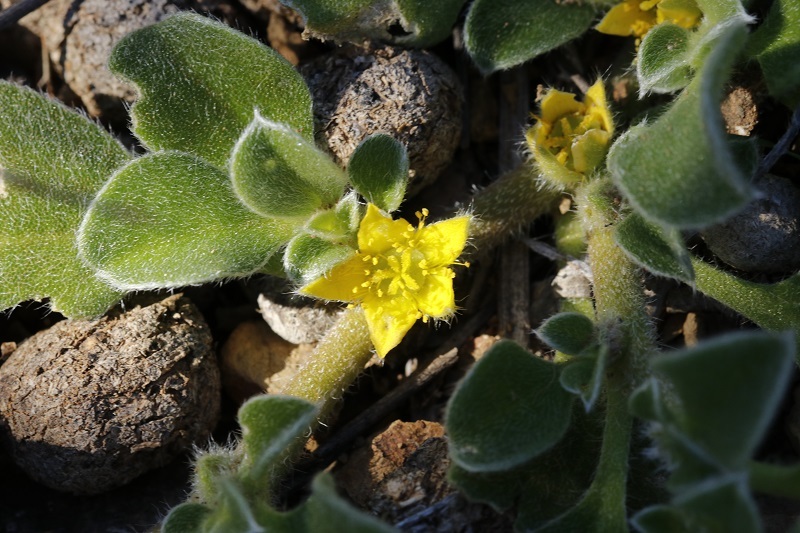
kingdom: Plantae
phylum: Tracheophyta
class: Magnoliopsida
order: Caryophyllales
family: Aizoaceae
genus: Aizoon
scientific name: Aizoon glinoides
